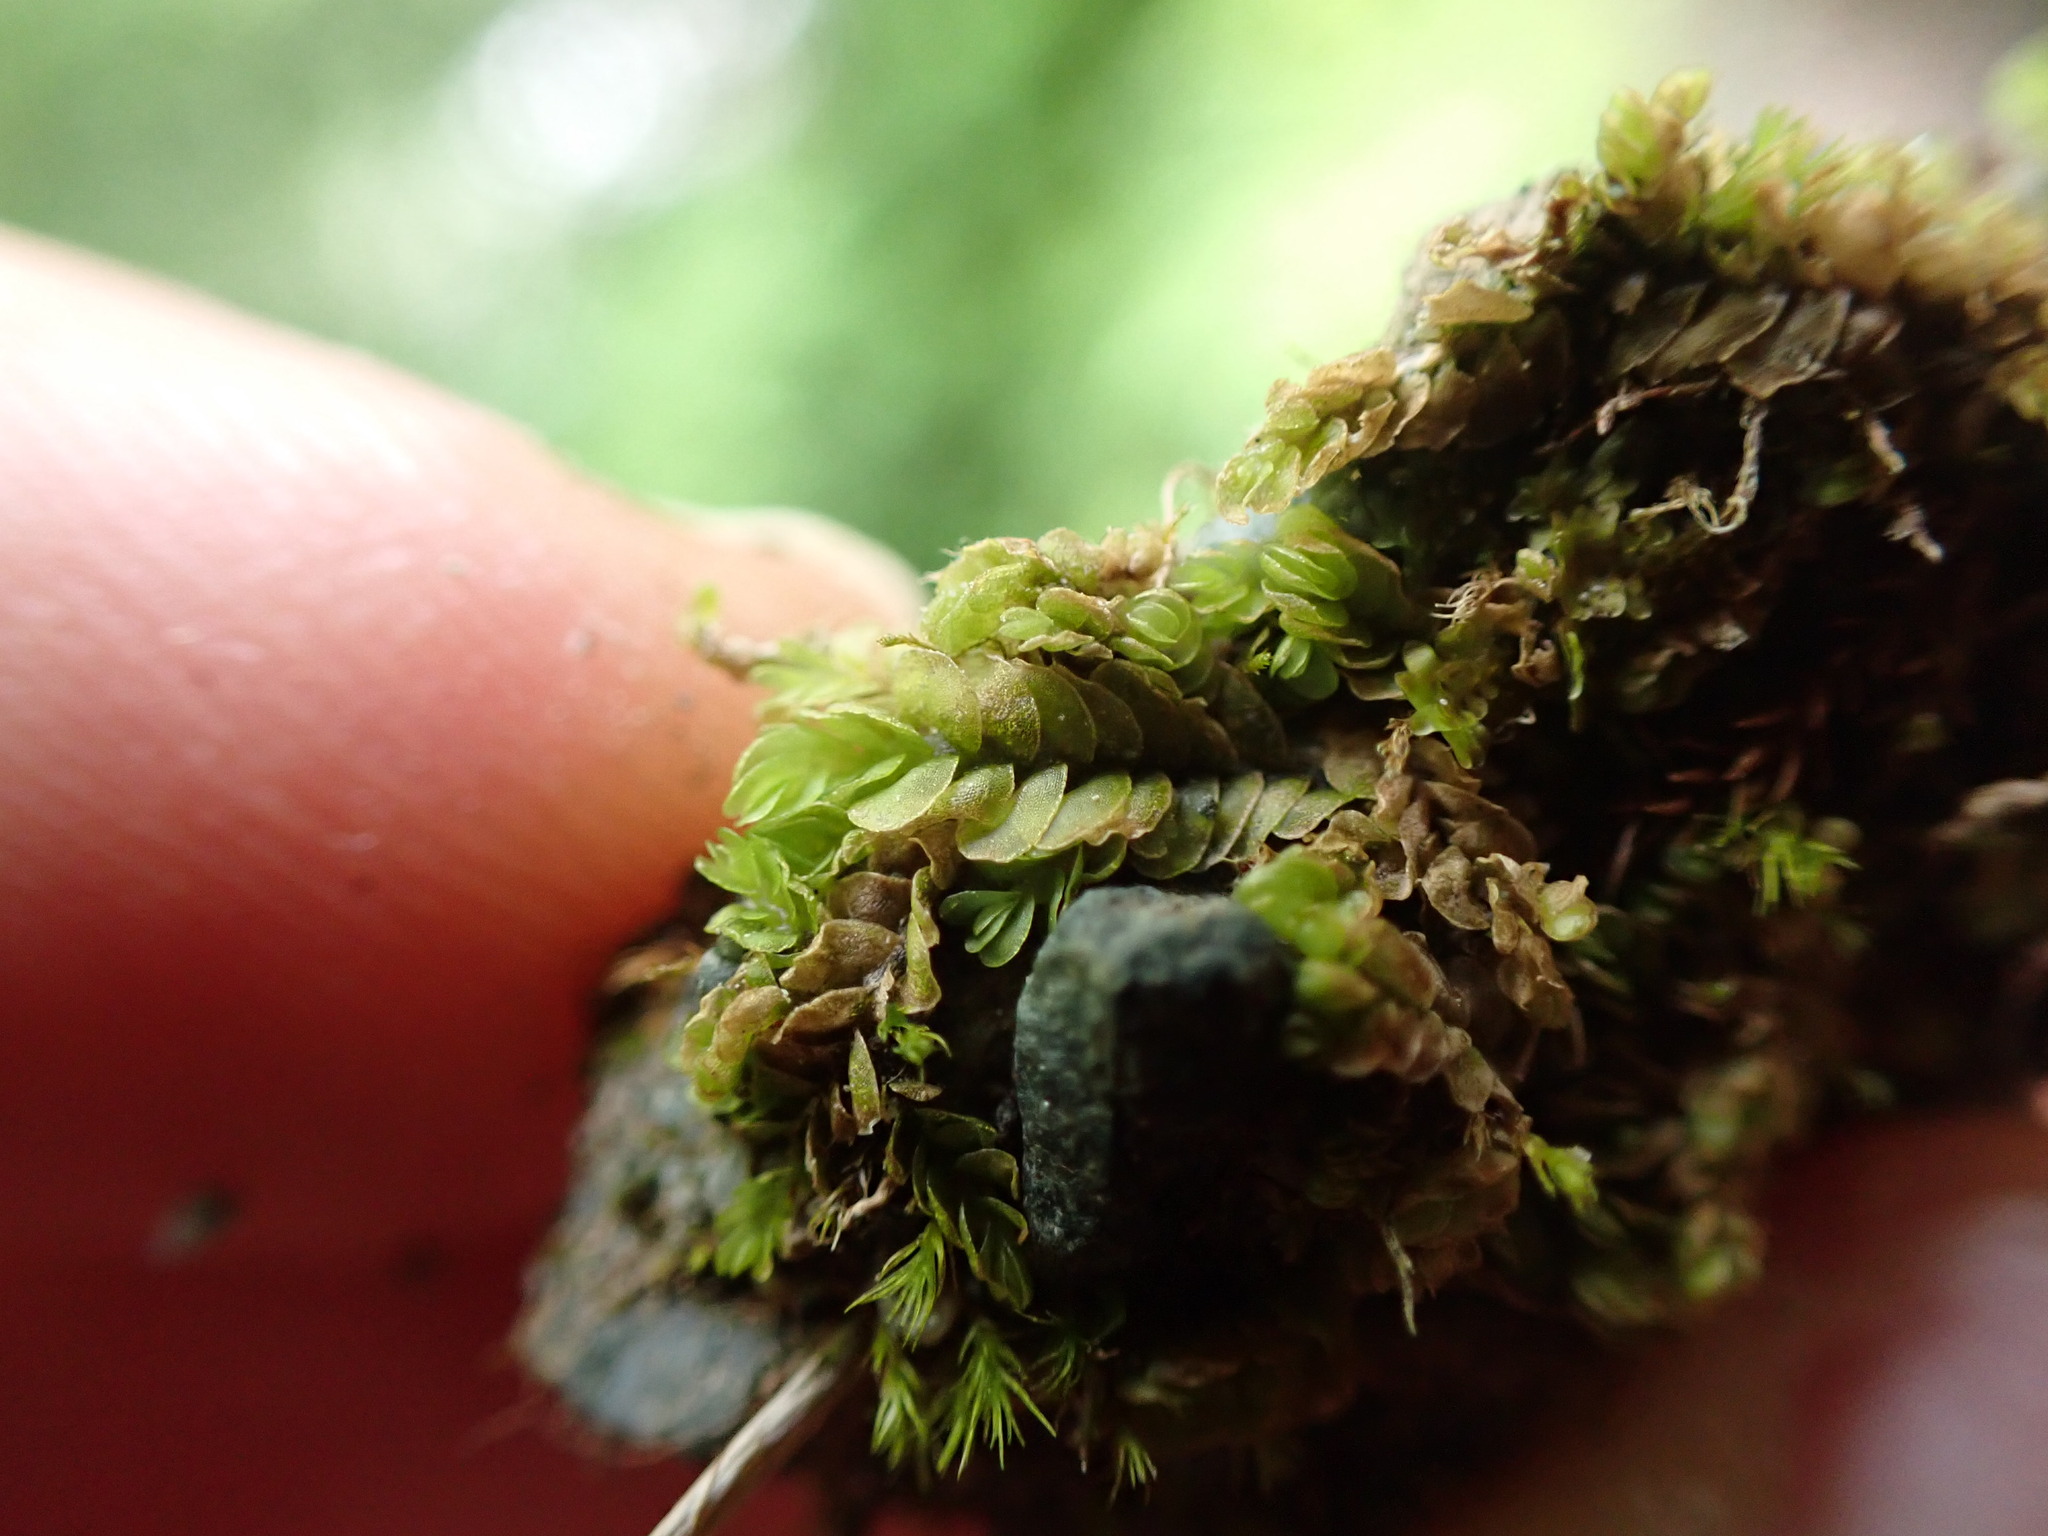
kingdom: Plantae
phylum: Marchantiophyta
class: Jungermanniopsida
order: Jungermanniales
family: Gyrothyraceae
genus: Gyrothyra
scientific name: Gyrothyra underwoodiana
